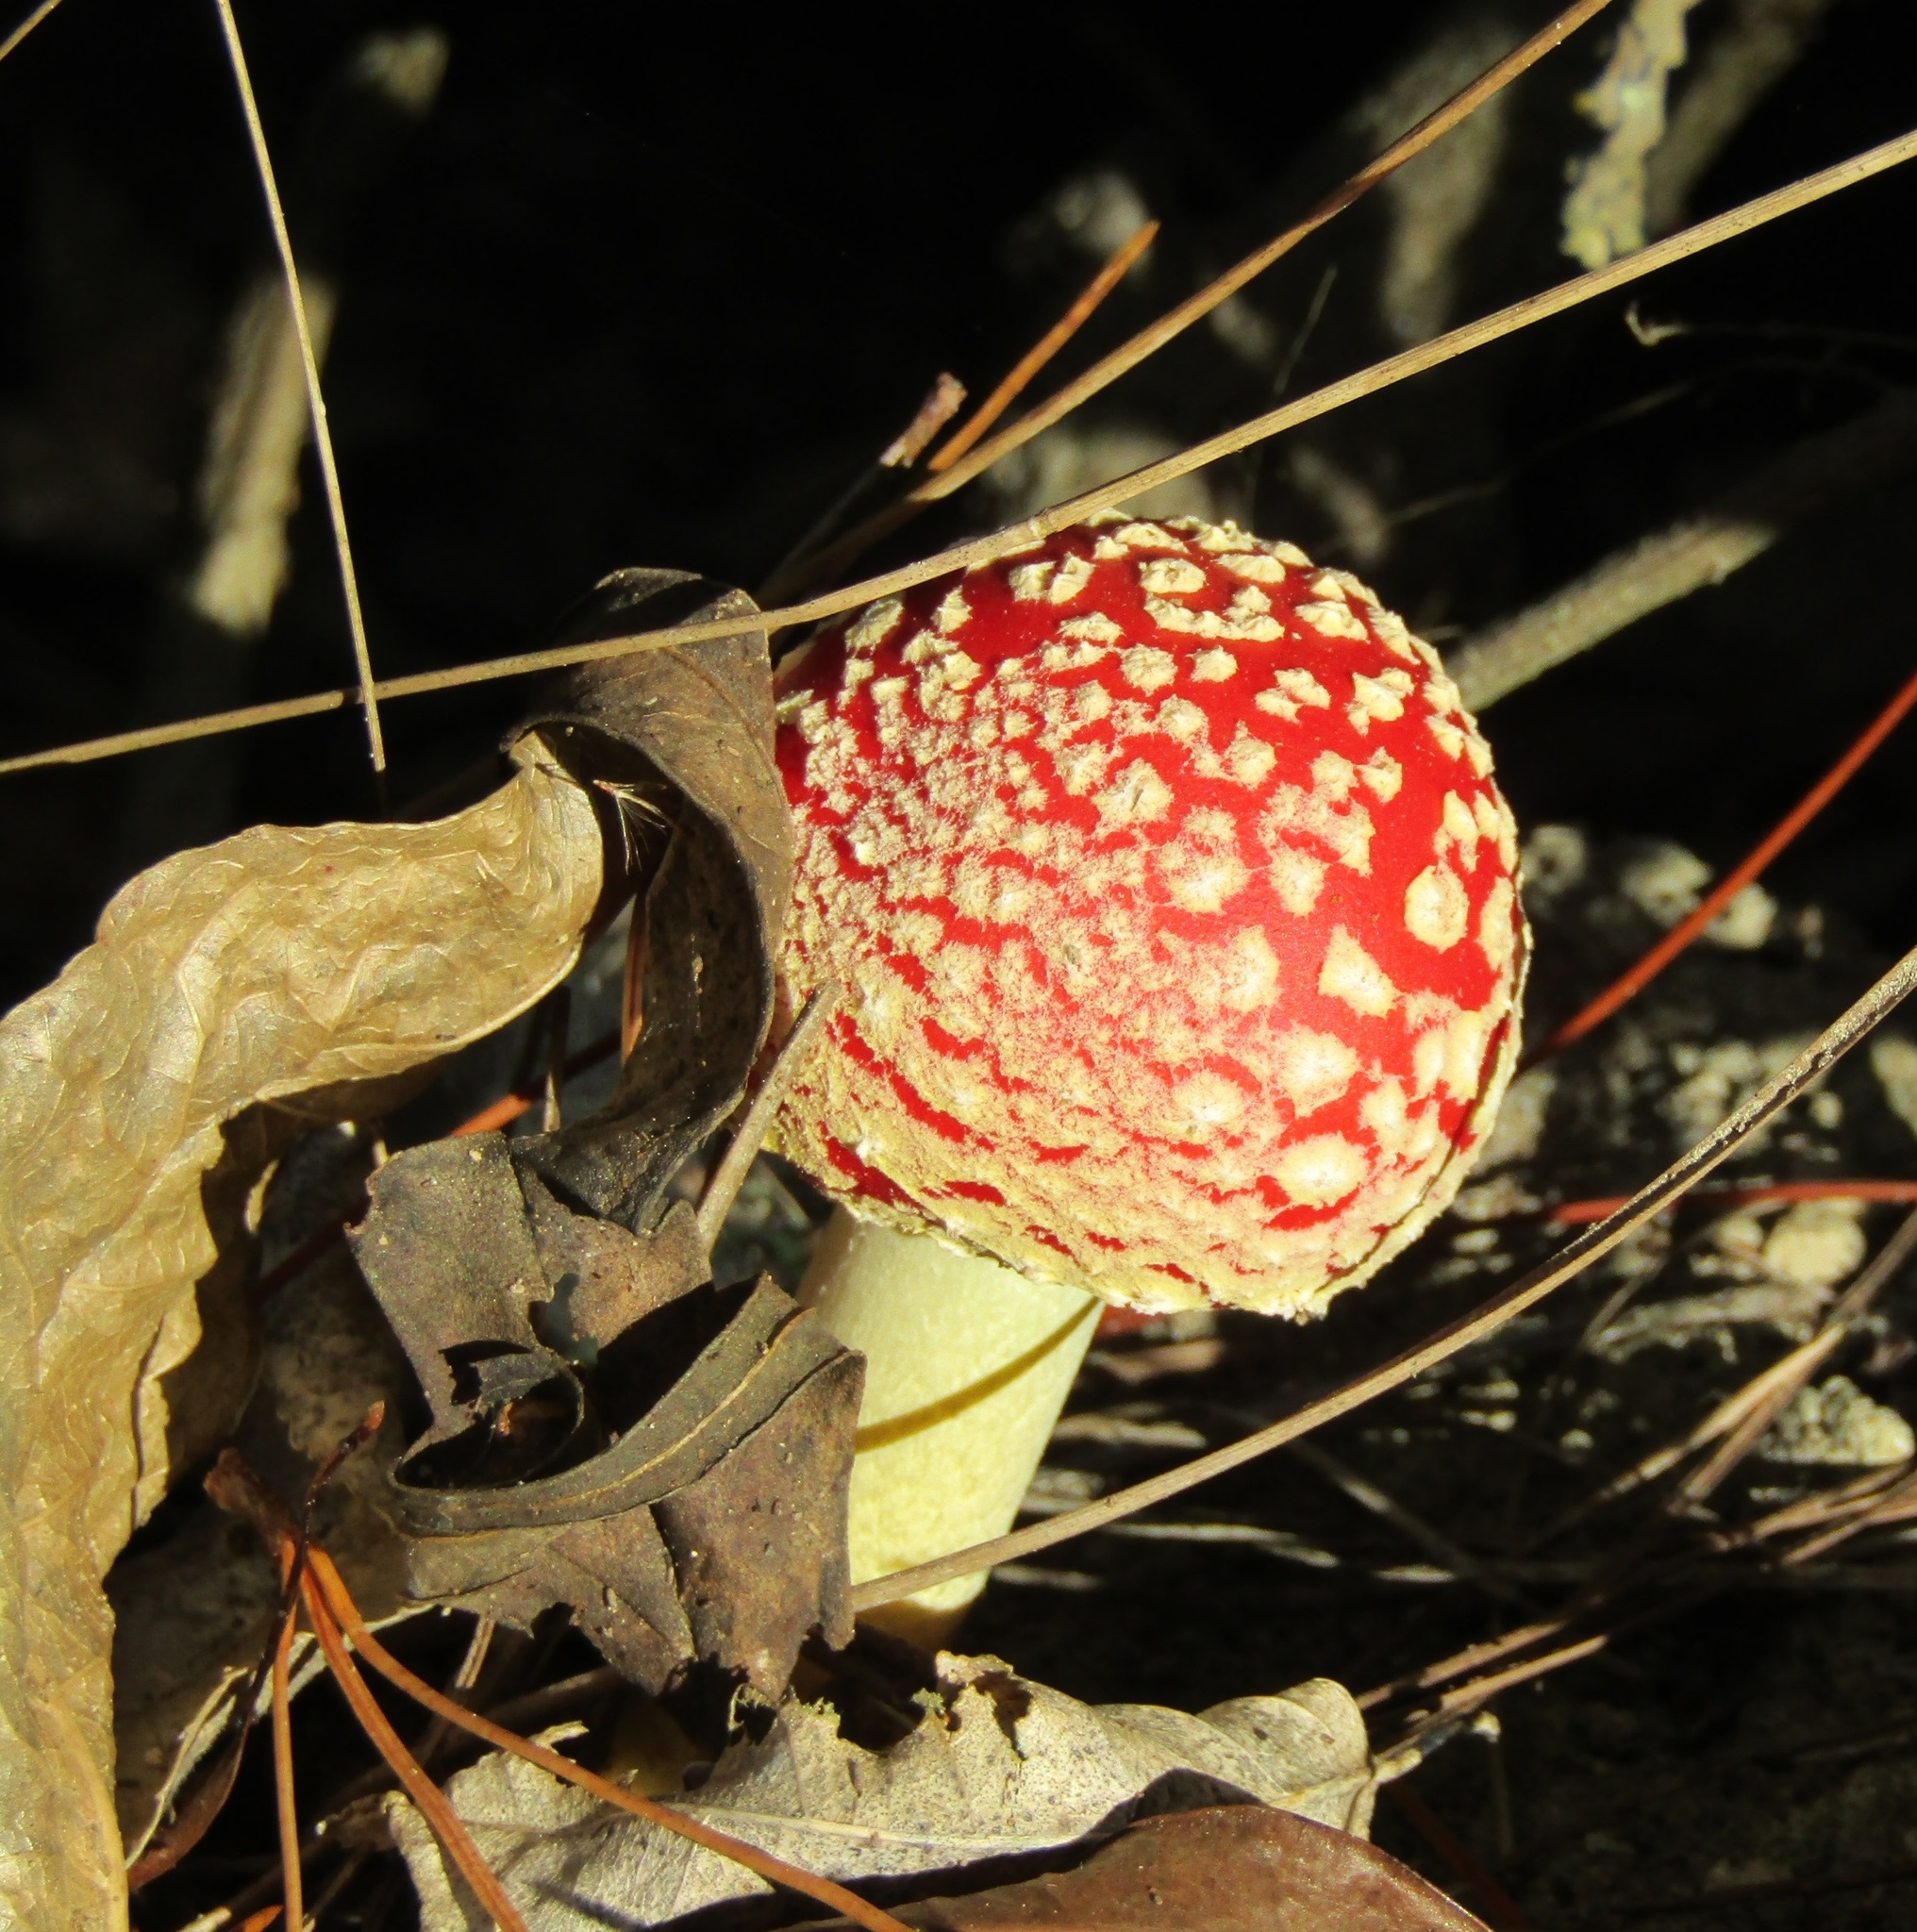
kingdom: Fungi
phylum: Basidiomycota
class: Agaricomycetes
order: Agaricales
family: Amanitaceae
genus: Amanita
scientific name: Amanita muscaria
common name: Fly agaric
